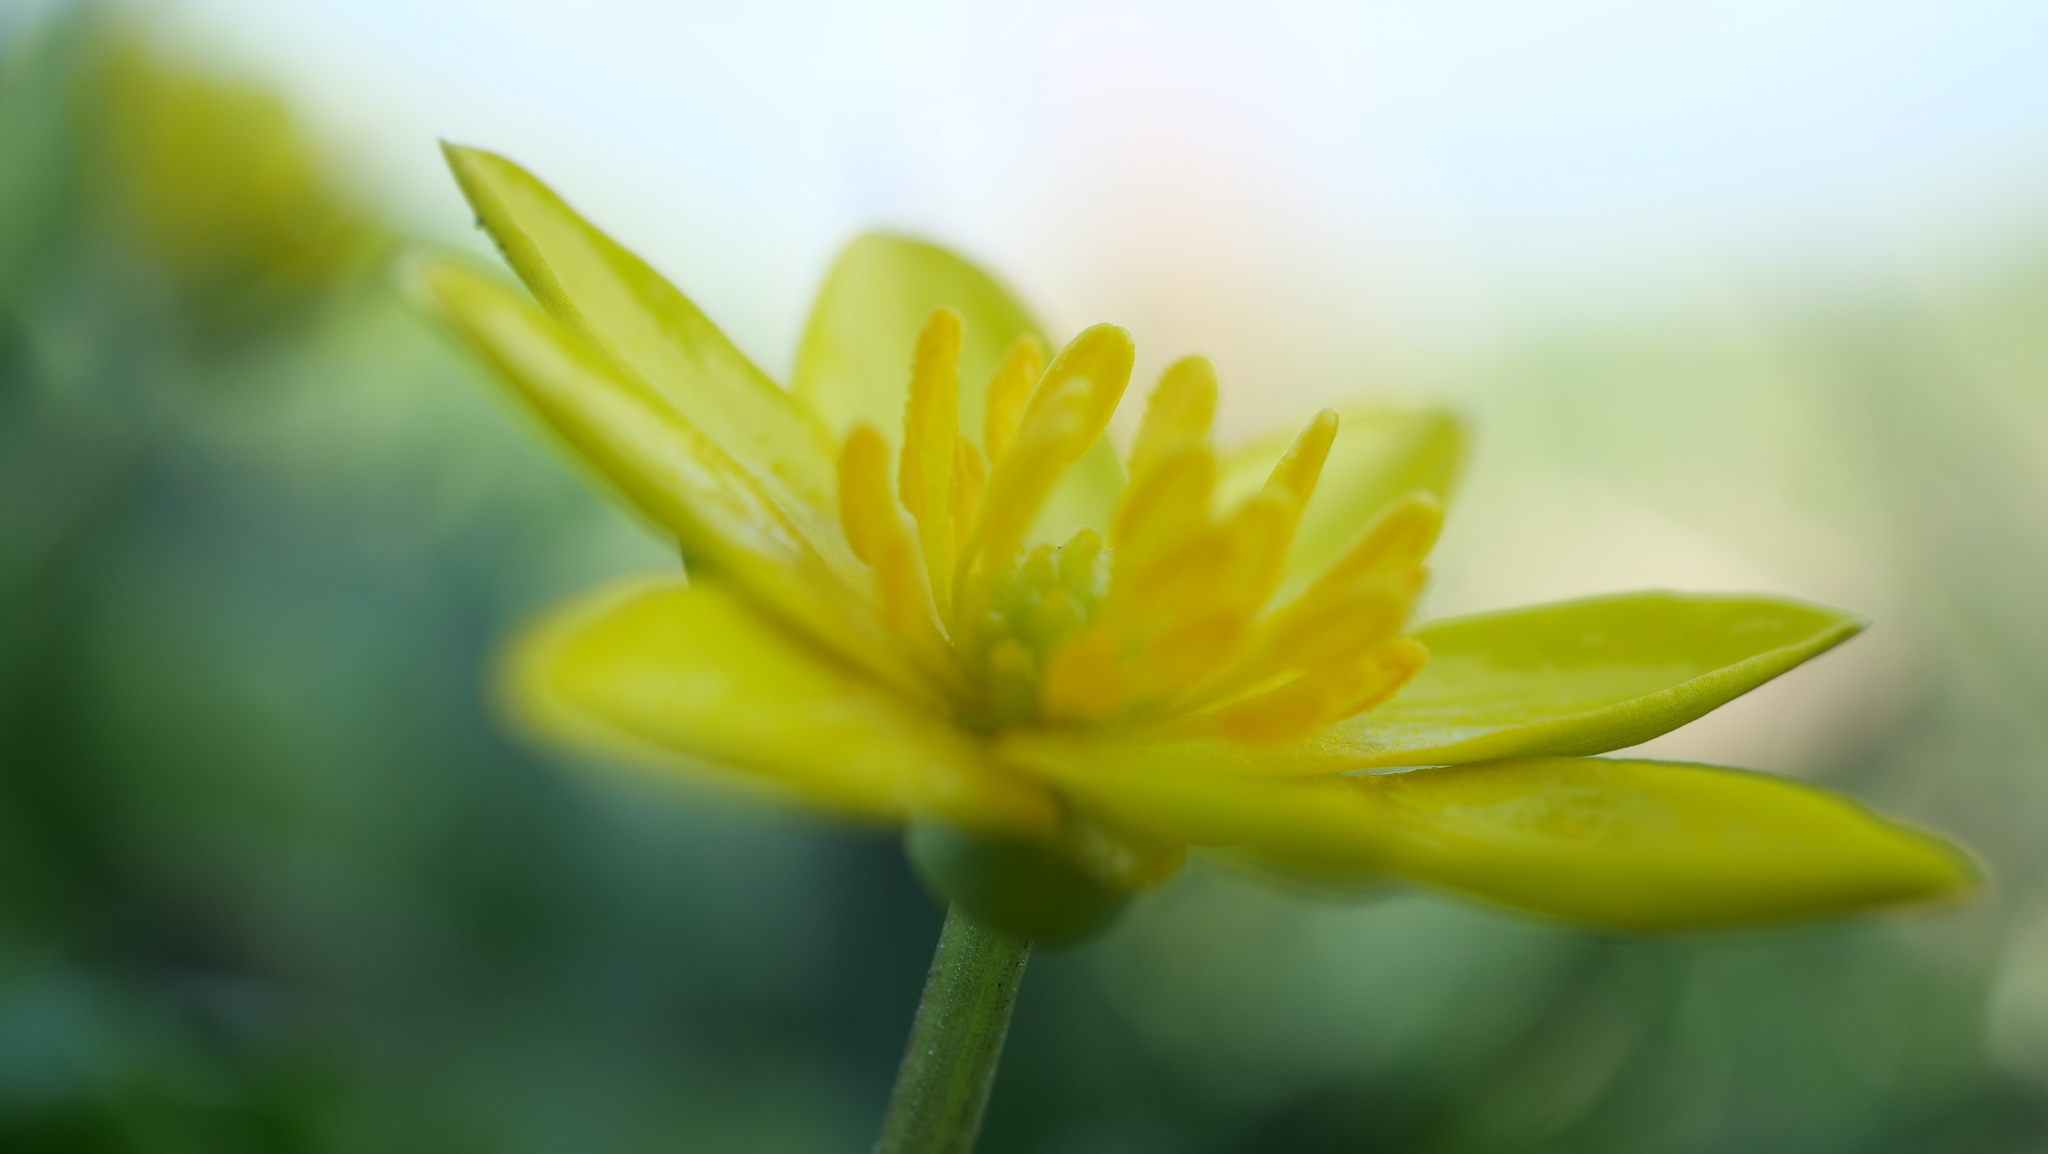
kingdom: Plantae
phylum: Tracheophyta
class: Magnoliopsida
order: Ranunculales
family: Ranunculaceae
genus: Ficaria
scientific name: Ficaria verna
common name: Lesser celandine
